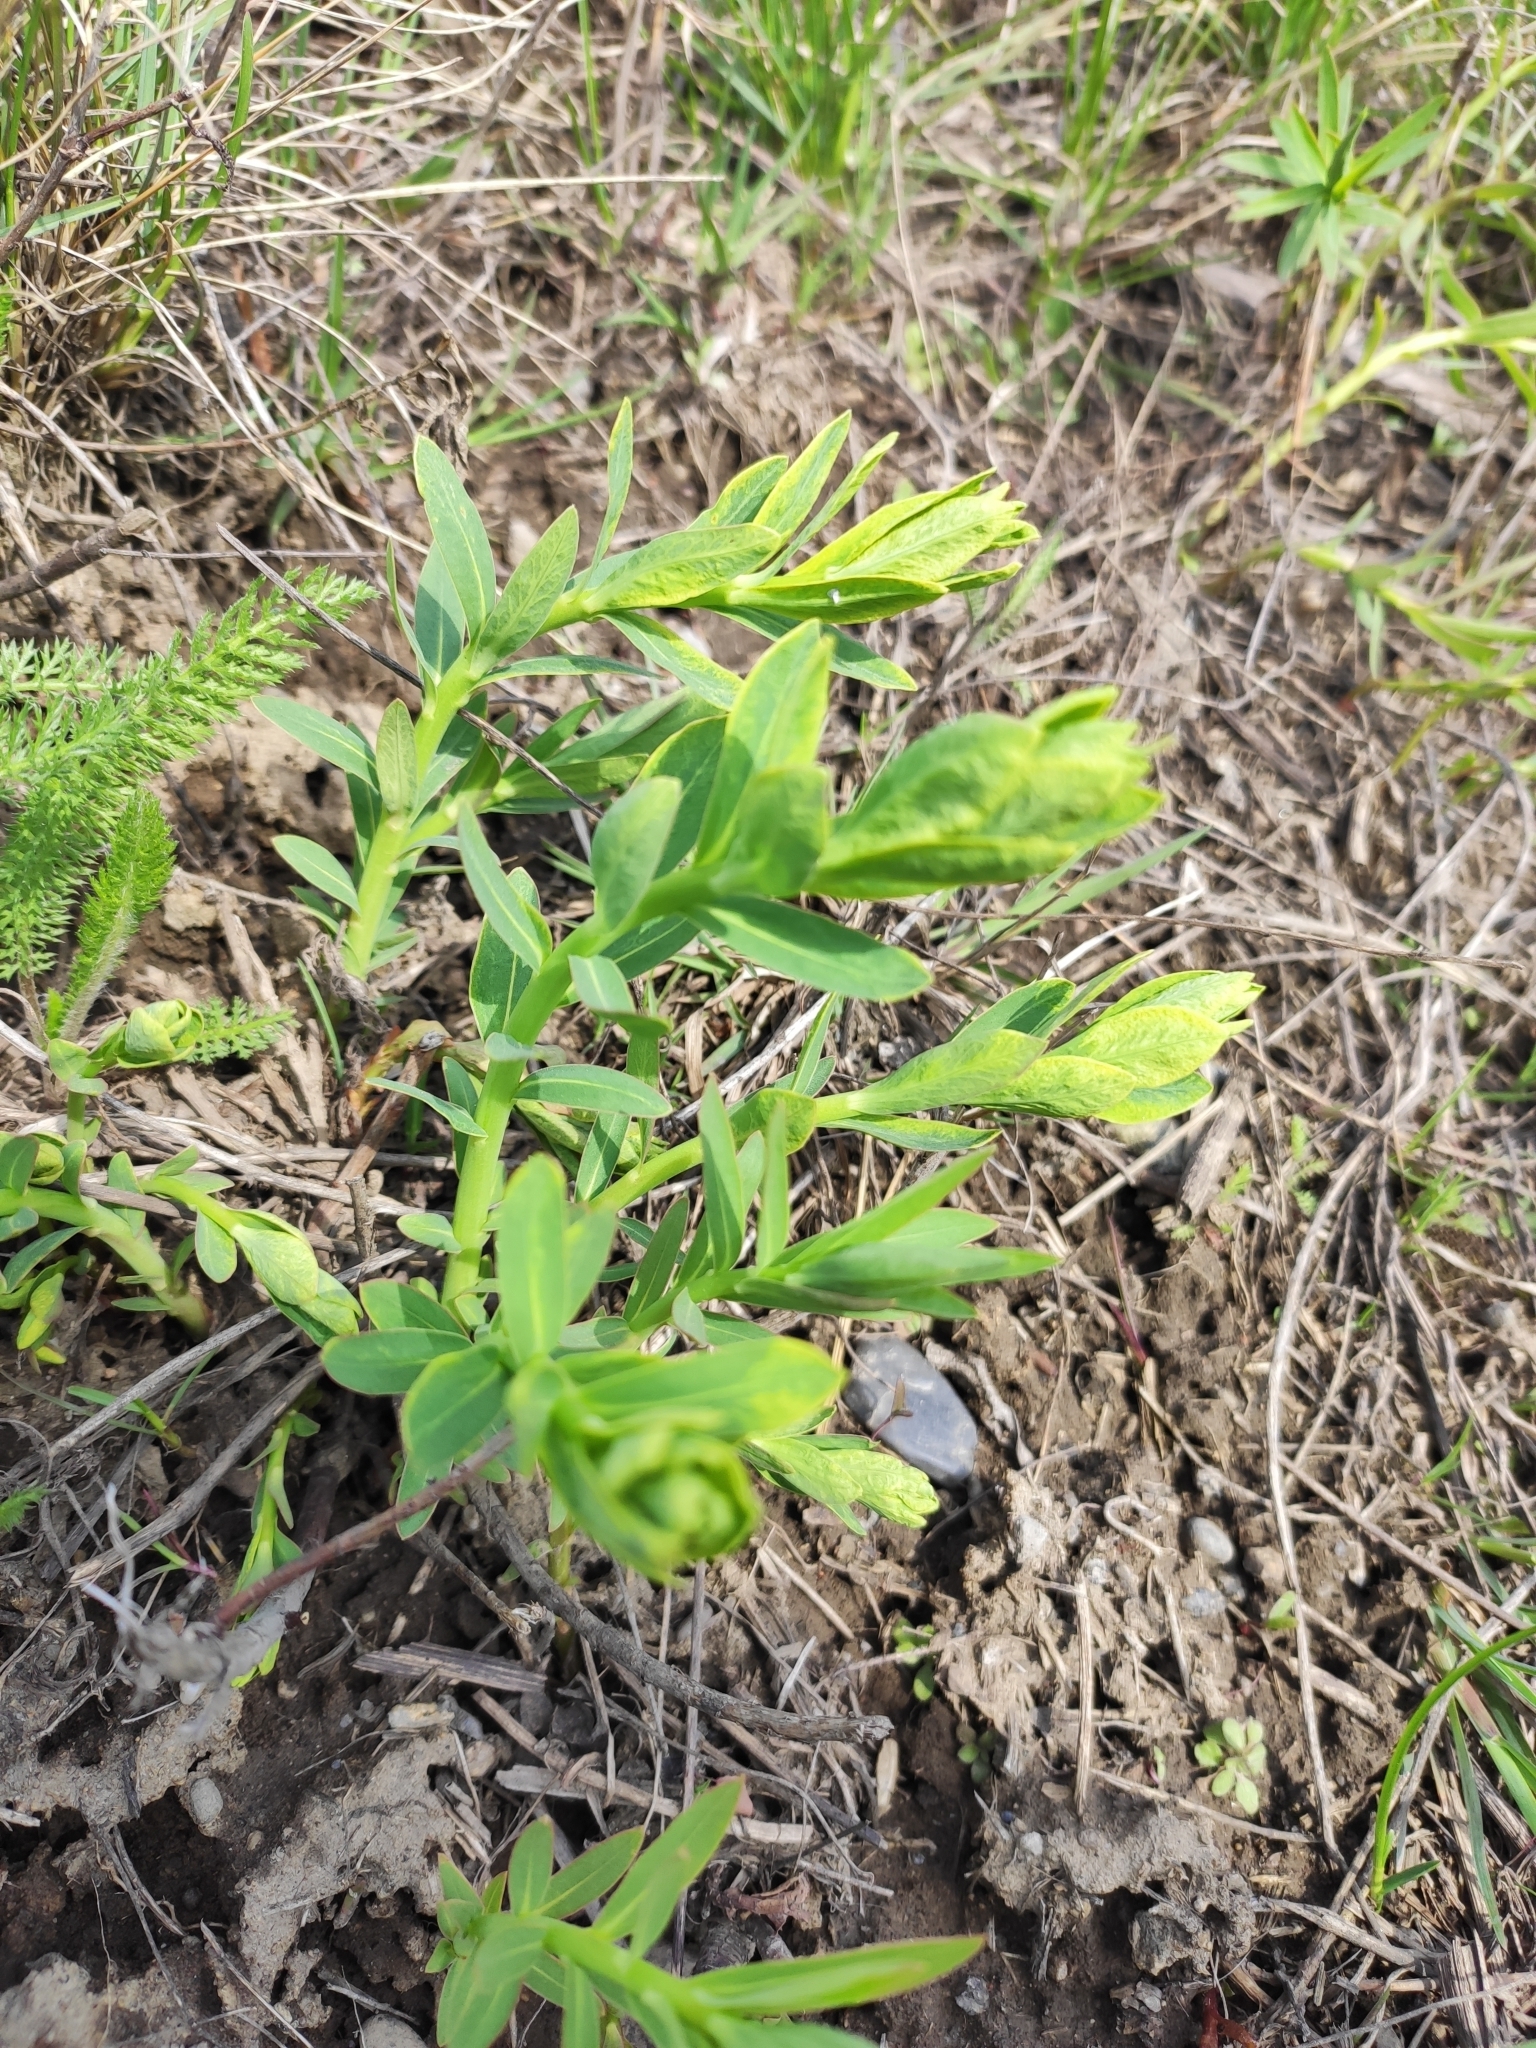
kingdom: Plantae
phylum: Tracheophyta
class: Magnoliopsida
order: Malpighiales
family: Euphorbiaceae
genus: Euphorbia
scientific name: Euphorbia virgata
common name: Leafy spurge
